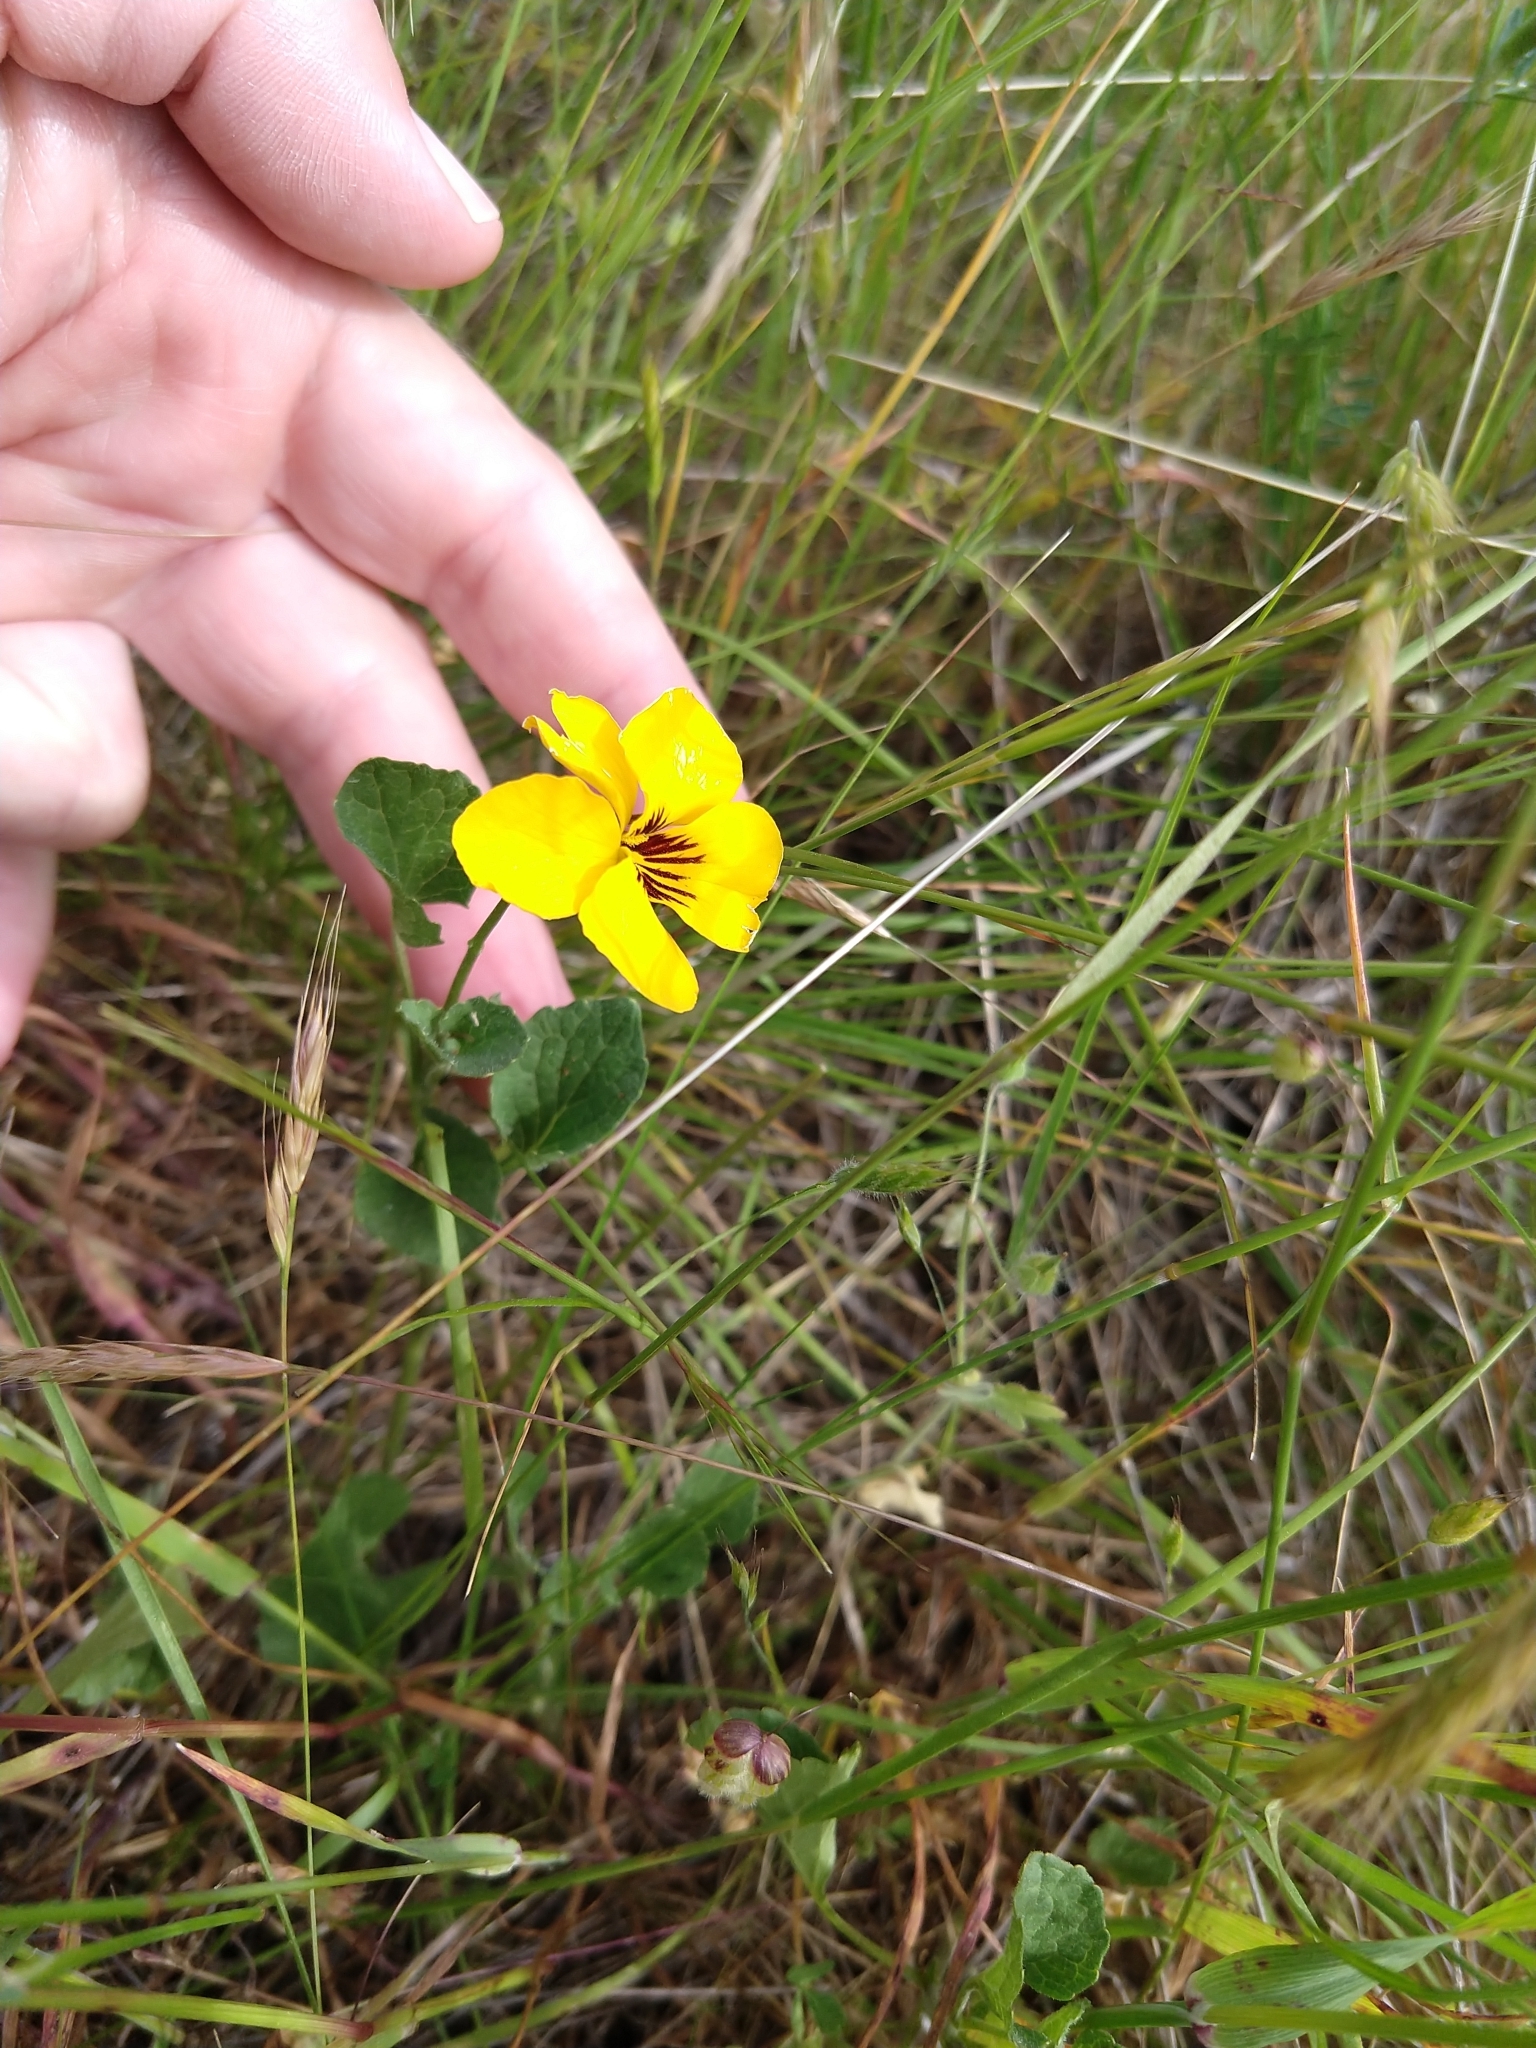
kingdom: Plantae
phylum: Tracheophyta
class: Magnoliopsida
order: Malpighiales
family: Violaceae
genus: Viola
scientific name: Viola pedunculata
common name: California golden violet
